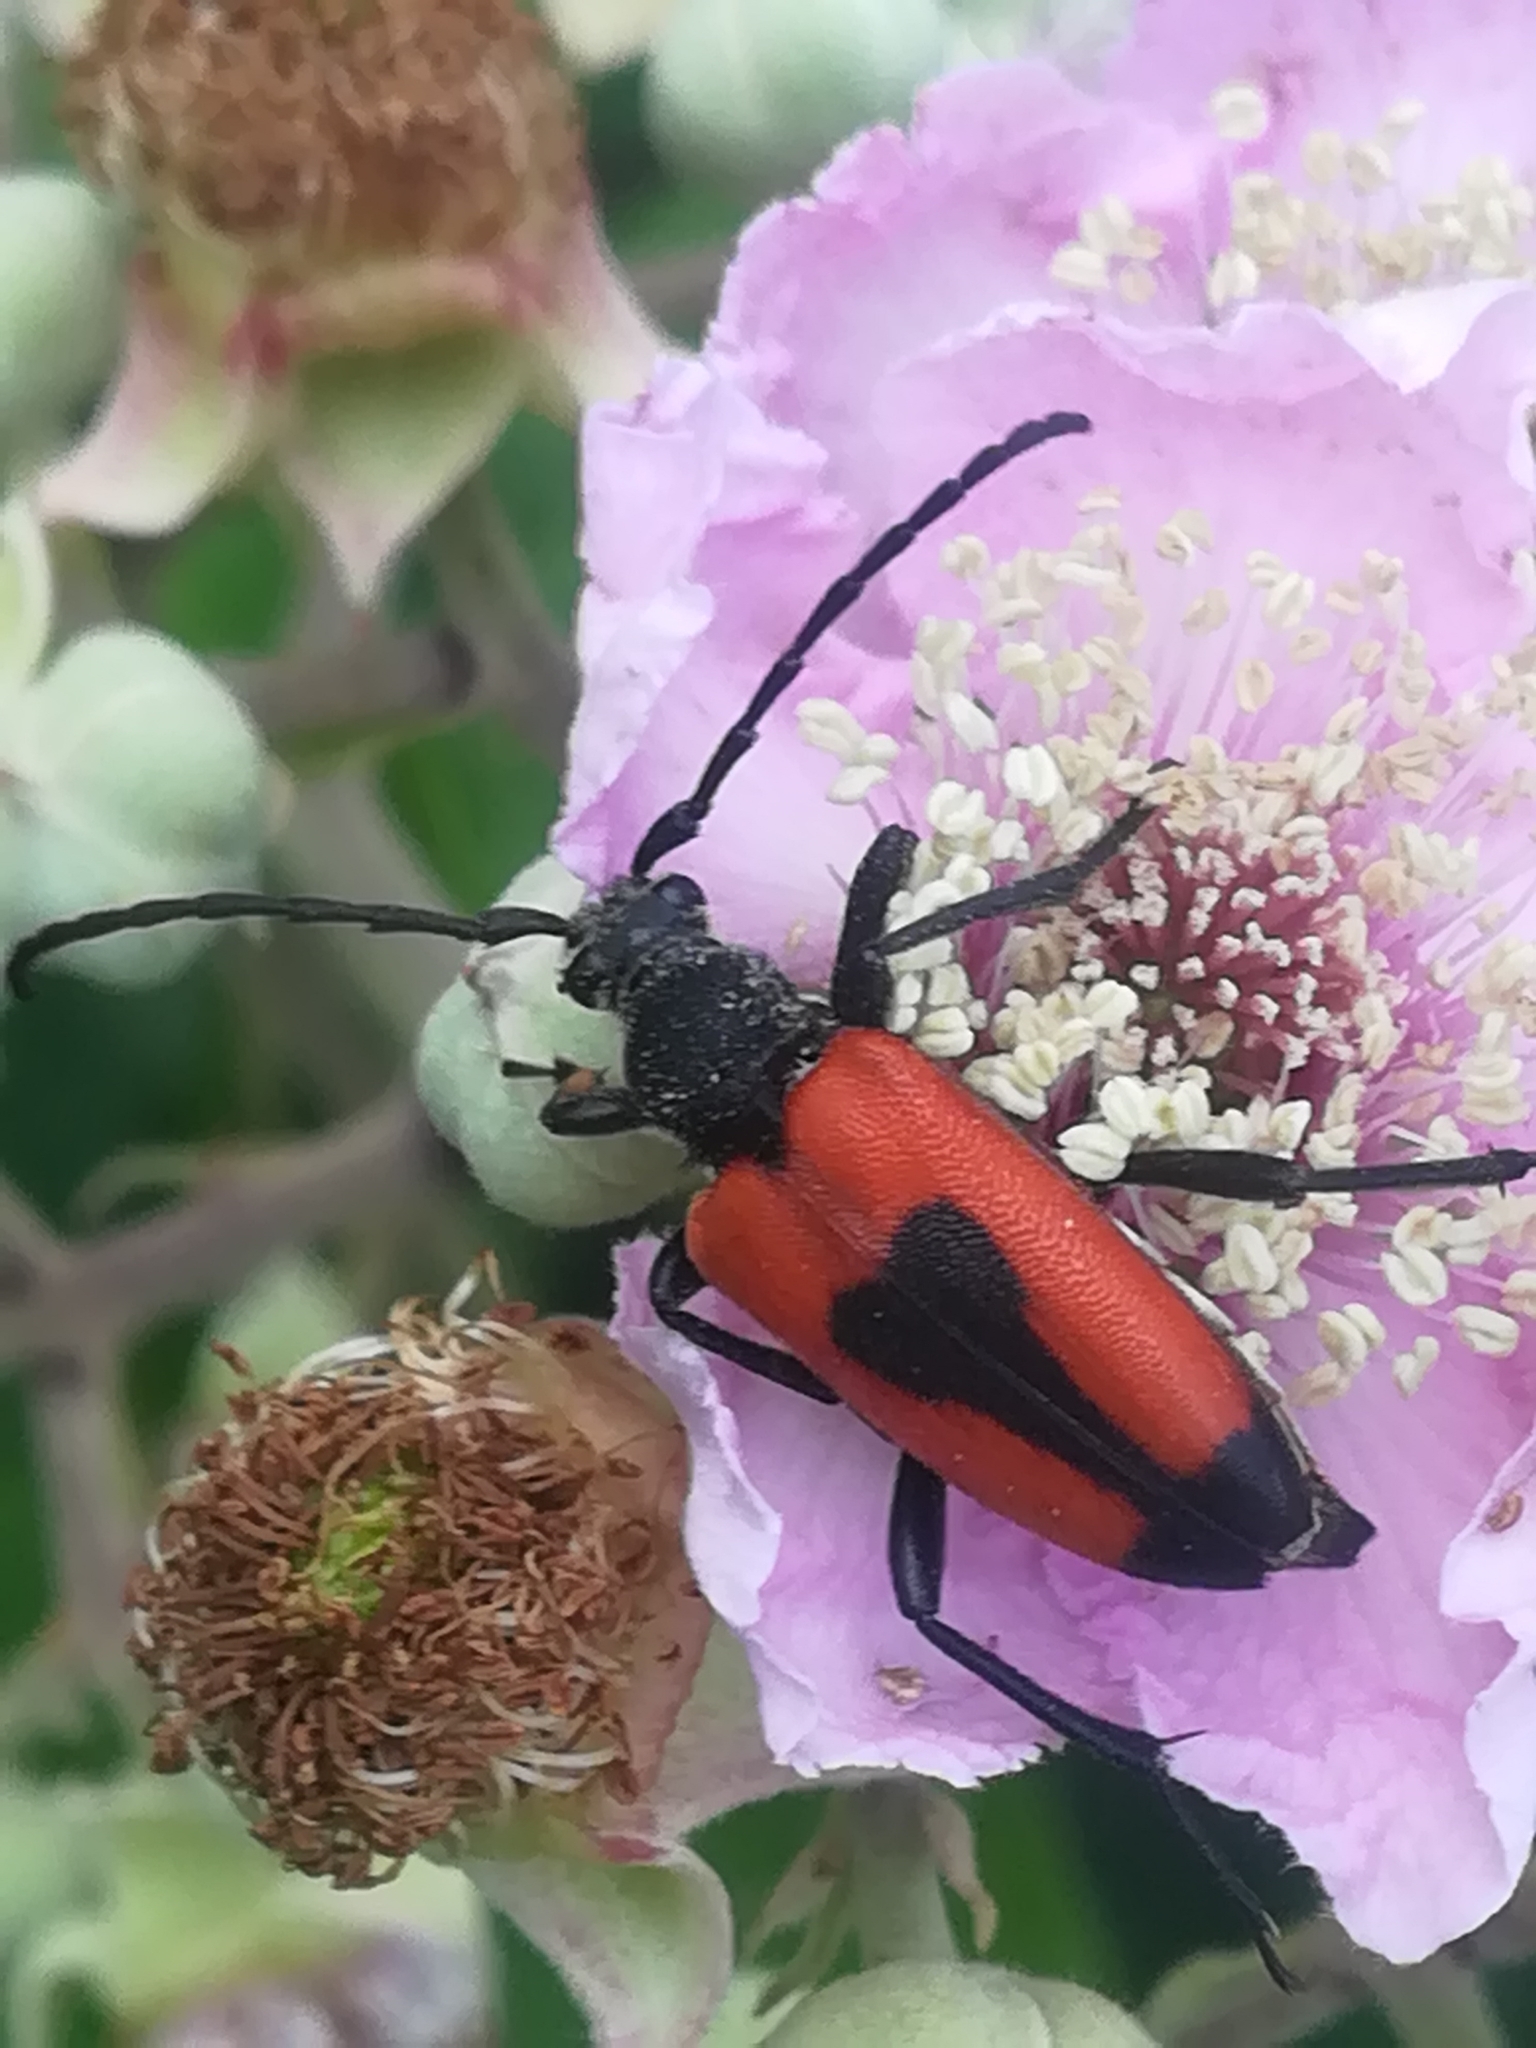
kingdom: Animalia
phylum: Arthropoda
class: Insecta
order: Coleoptera
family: Cerambycidae
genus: Stictoleptura
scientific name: Stictoleptura cordigera
